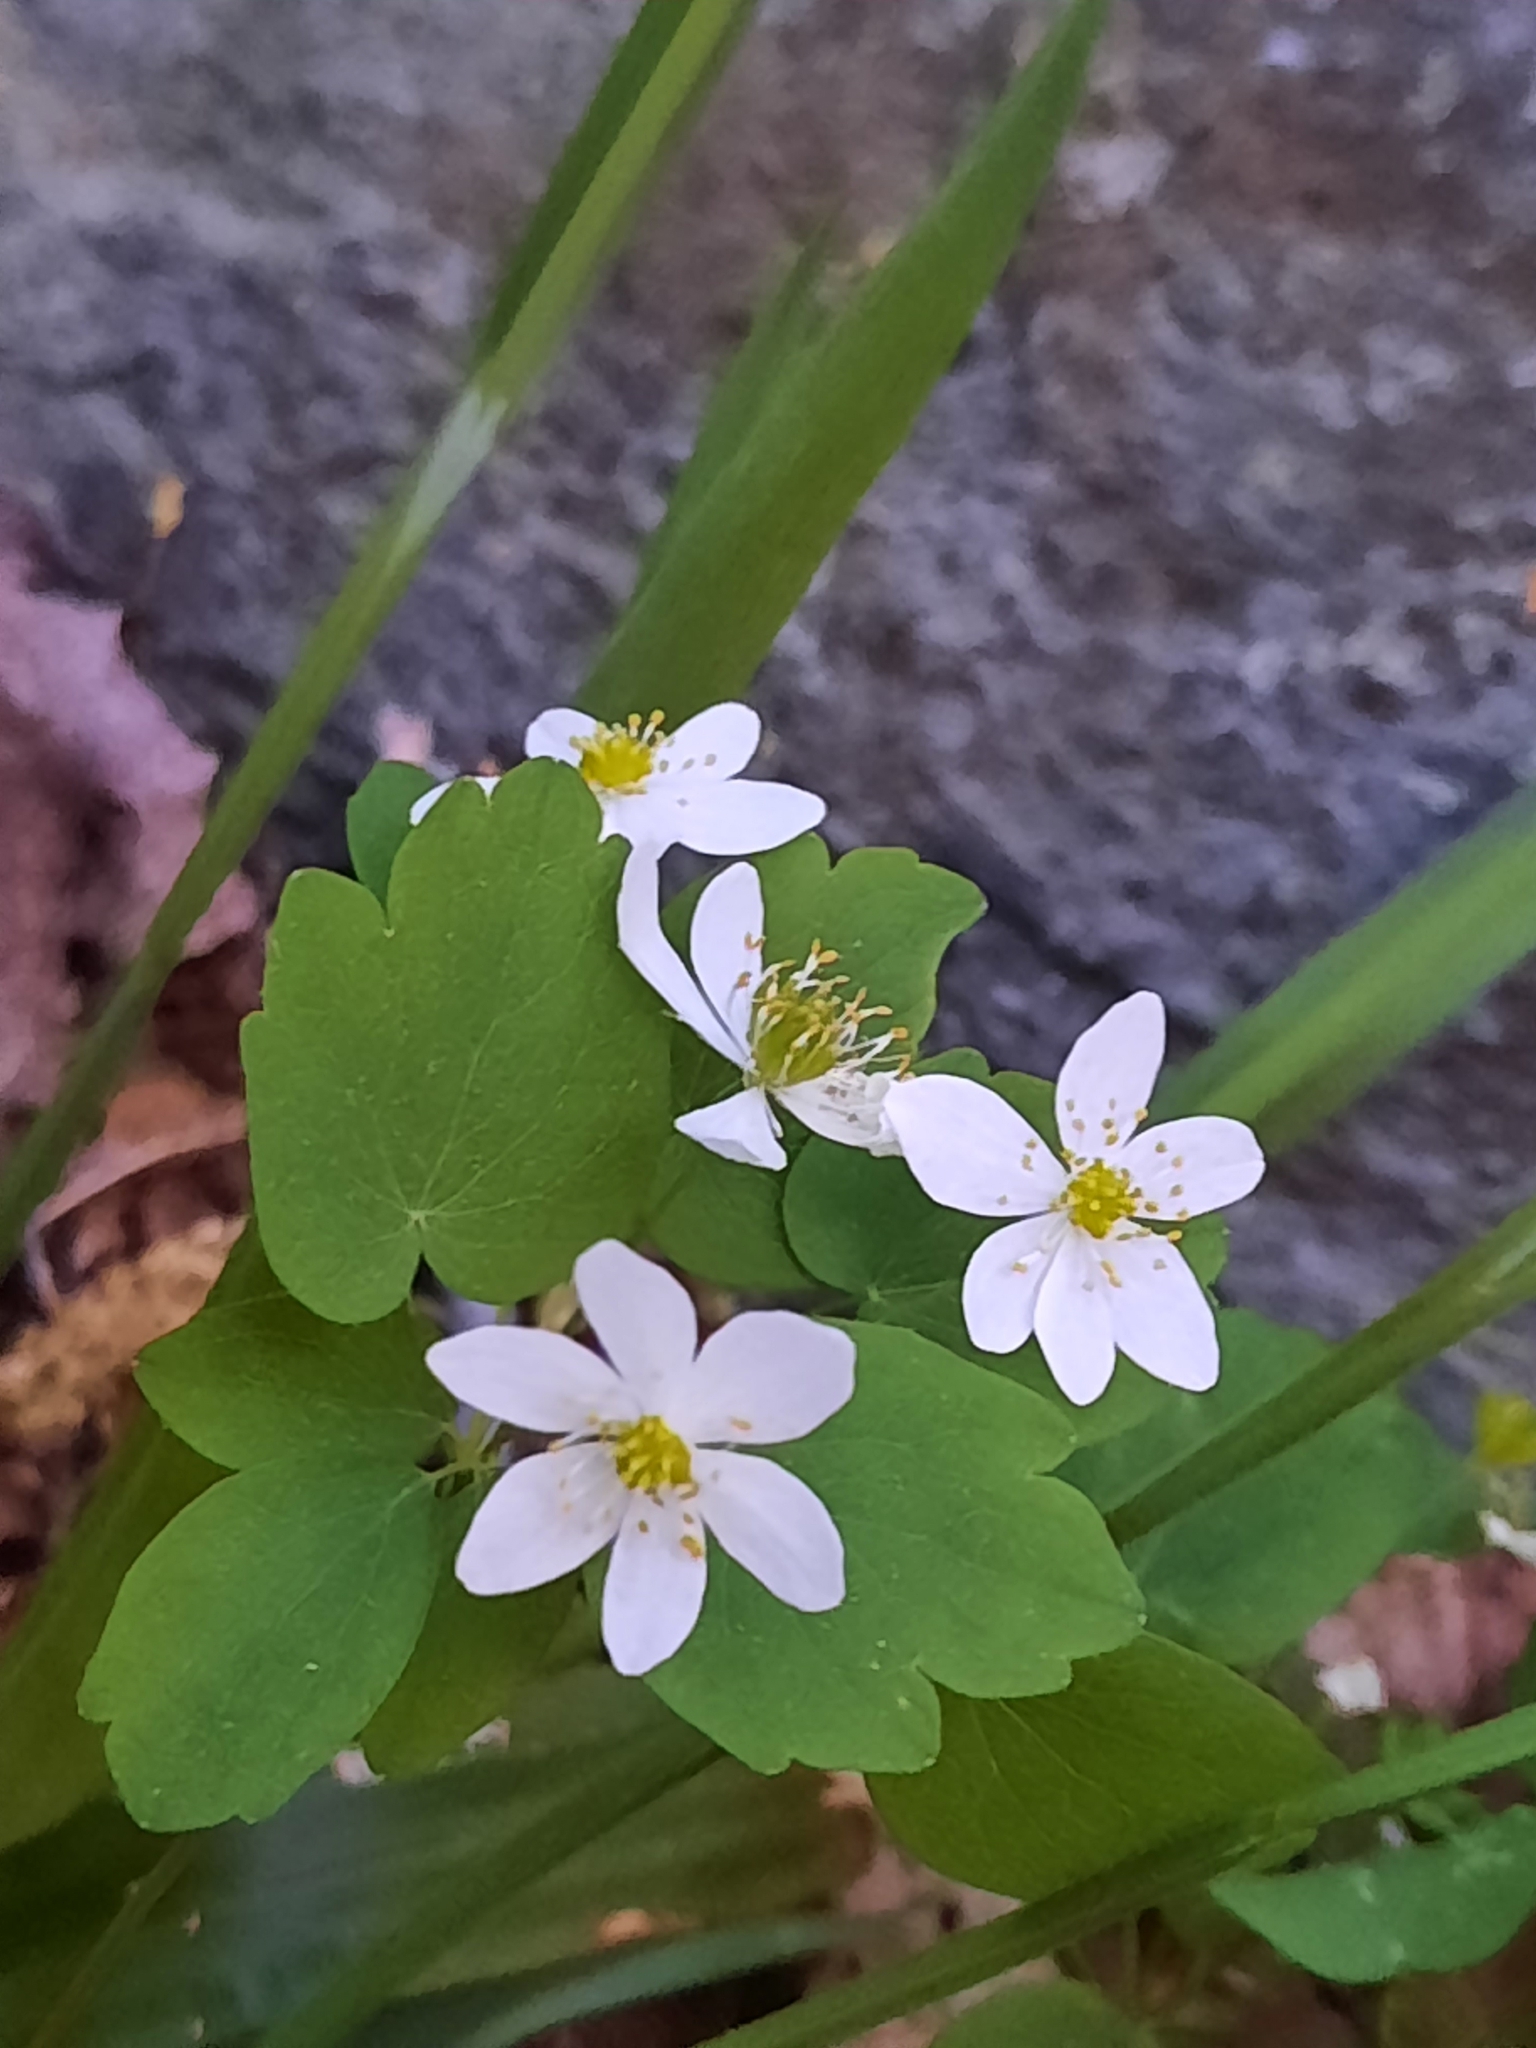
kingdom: Plantae
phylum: Tracheophyta
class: Magnoliopsida
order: Ranunculales
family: Ranunculaceae
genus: Thalictrum
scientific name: Thalictrum thalictroides
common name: Rue-anemone
